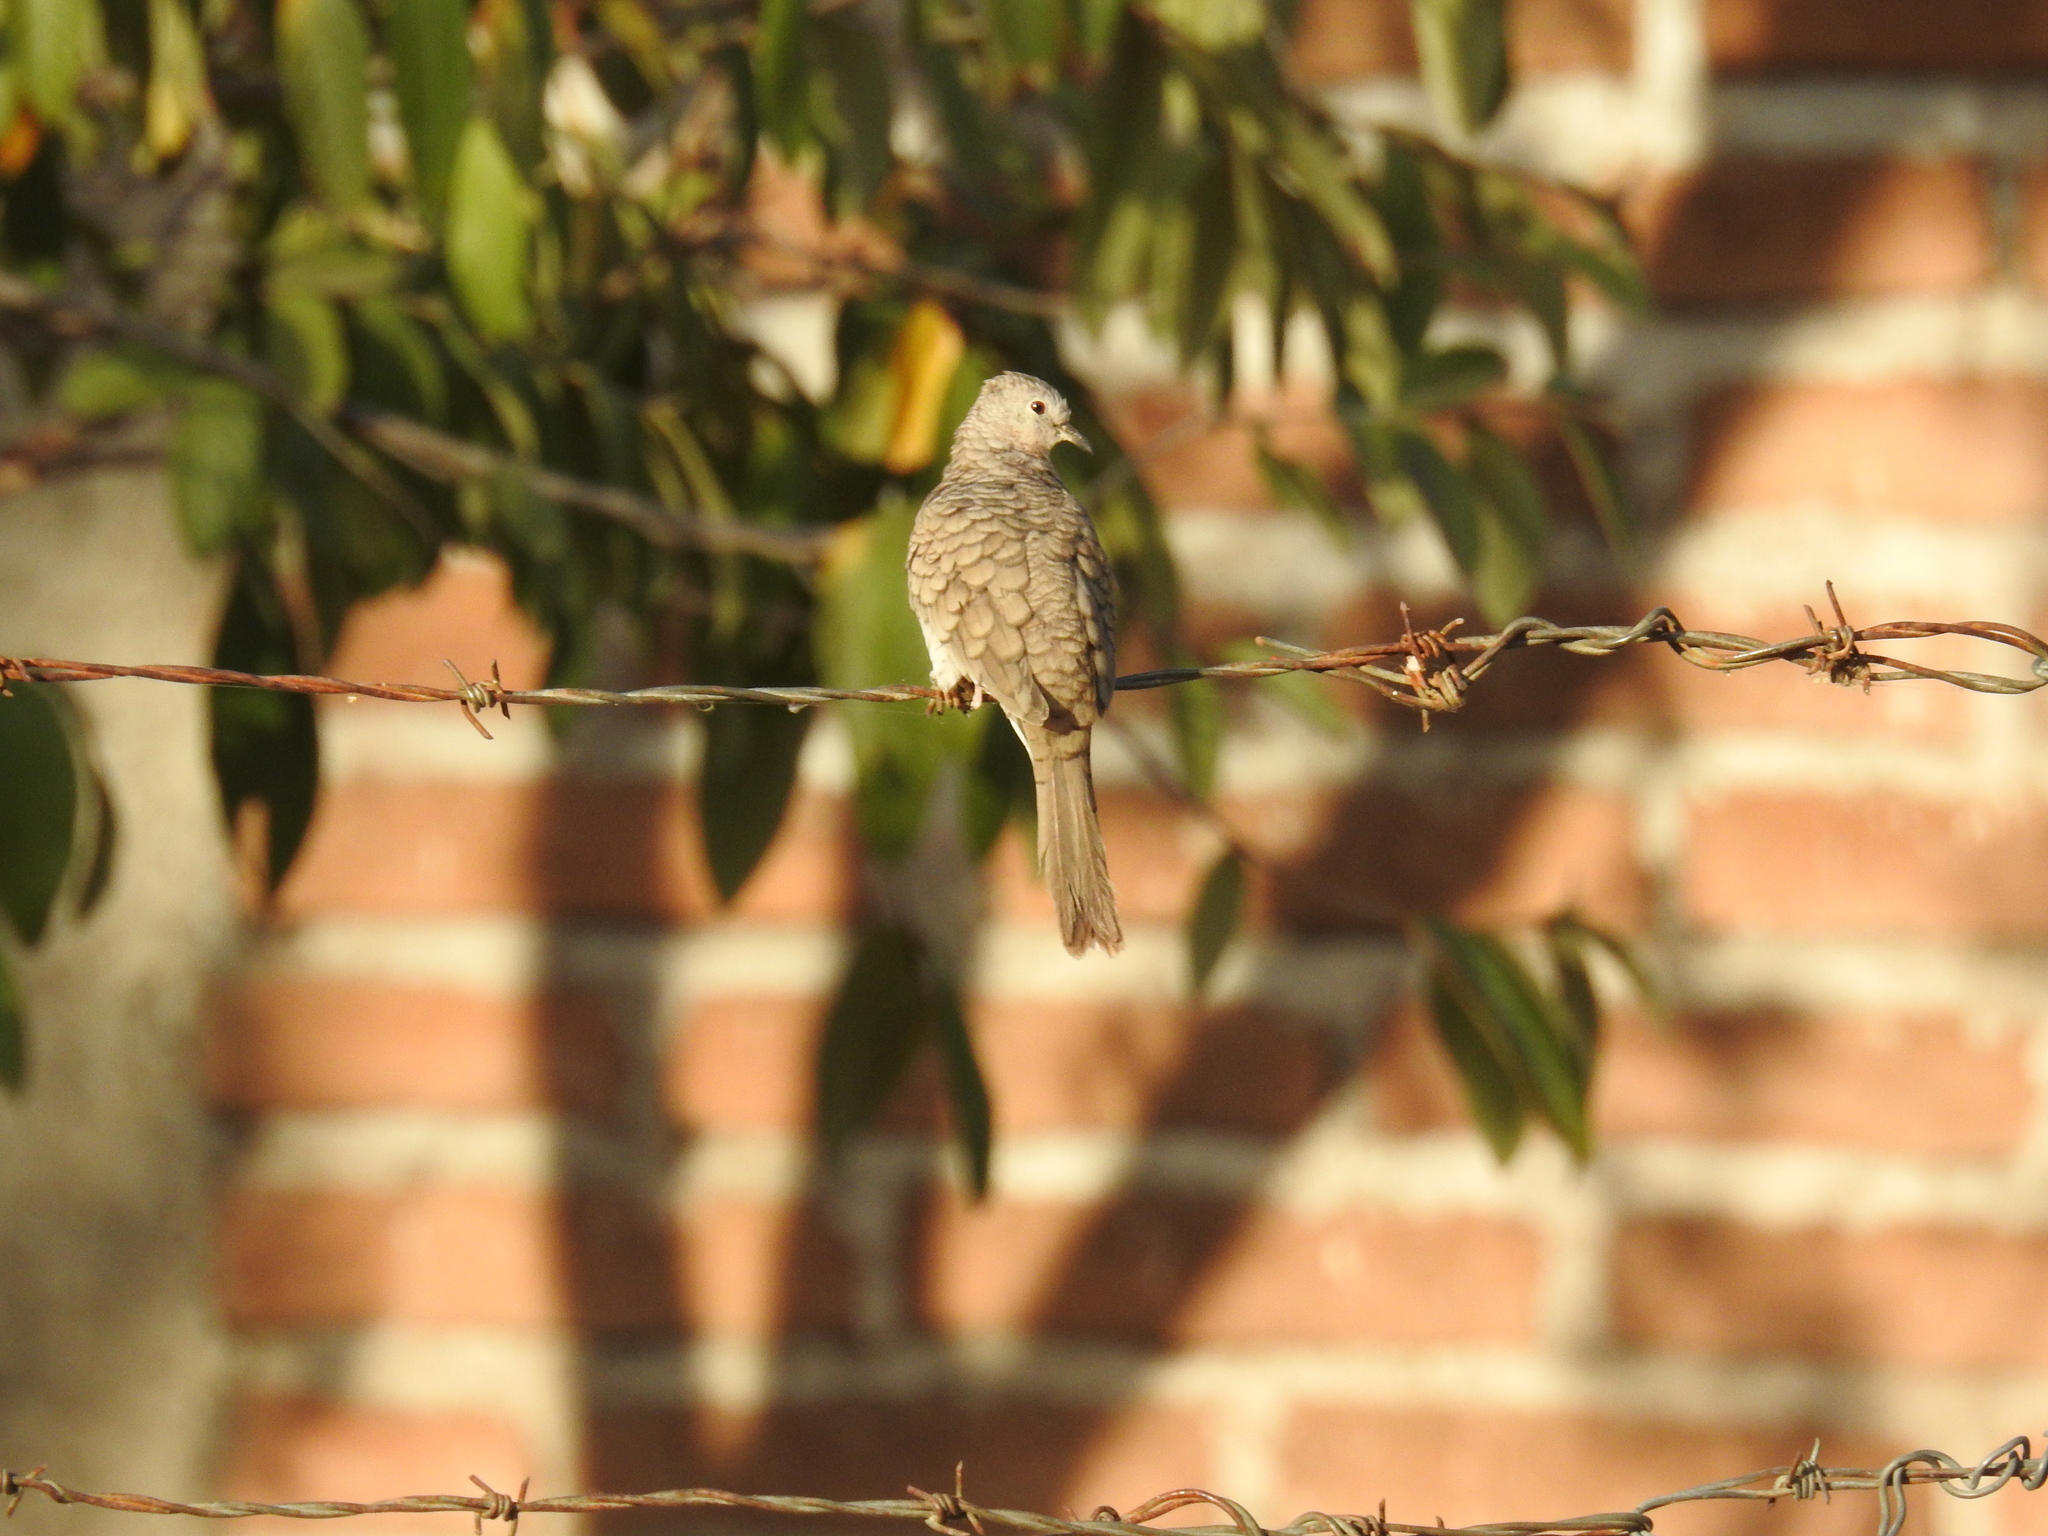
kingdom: Animalia
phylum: Chordata
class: Aves
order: Columbiformes
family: Columbidae
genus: Columbina
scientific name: Columbina inca
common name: Inca dove
